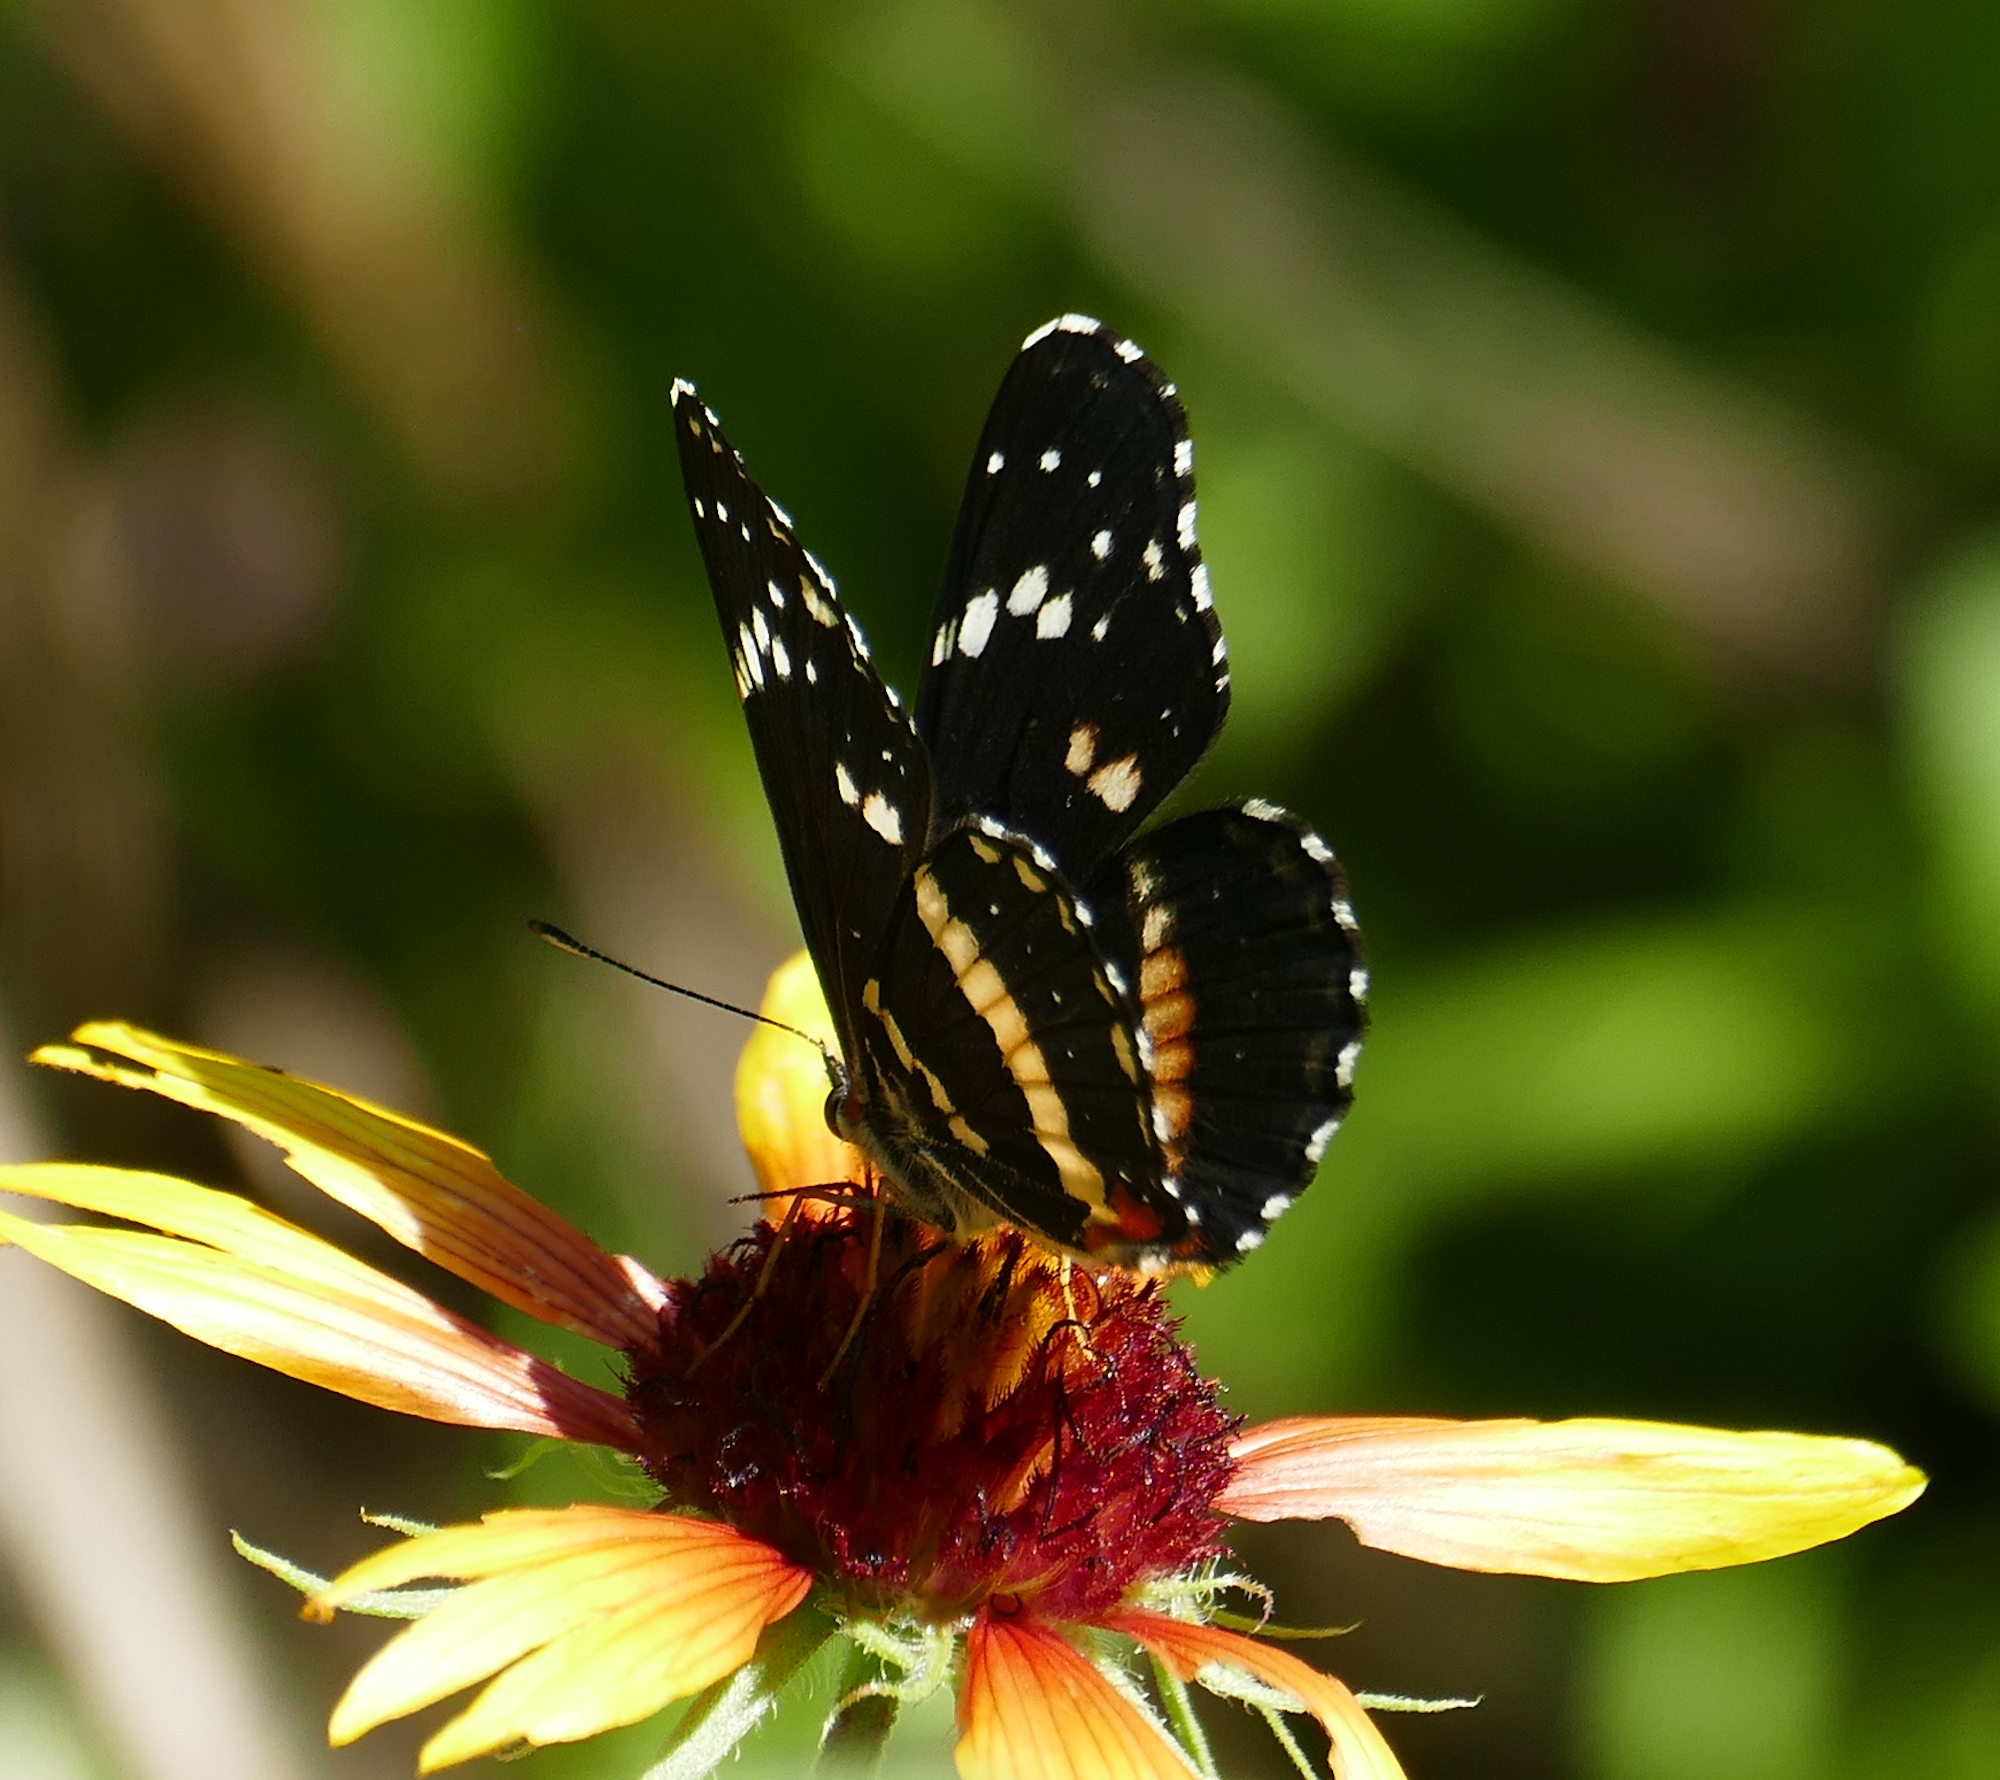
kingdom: Animalia
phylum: Arthropoda
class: Insecta
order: Lepidoptera
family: Nymphalidae
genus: Chlosyne
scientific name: Chlosyne lacinia
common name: Bordered patch
